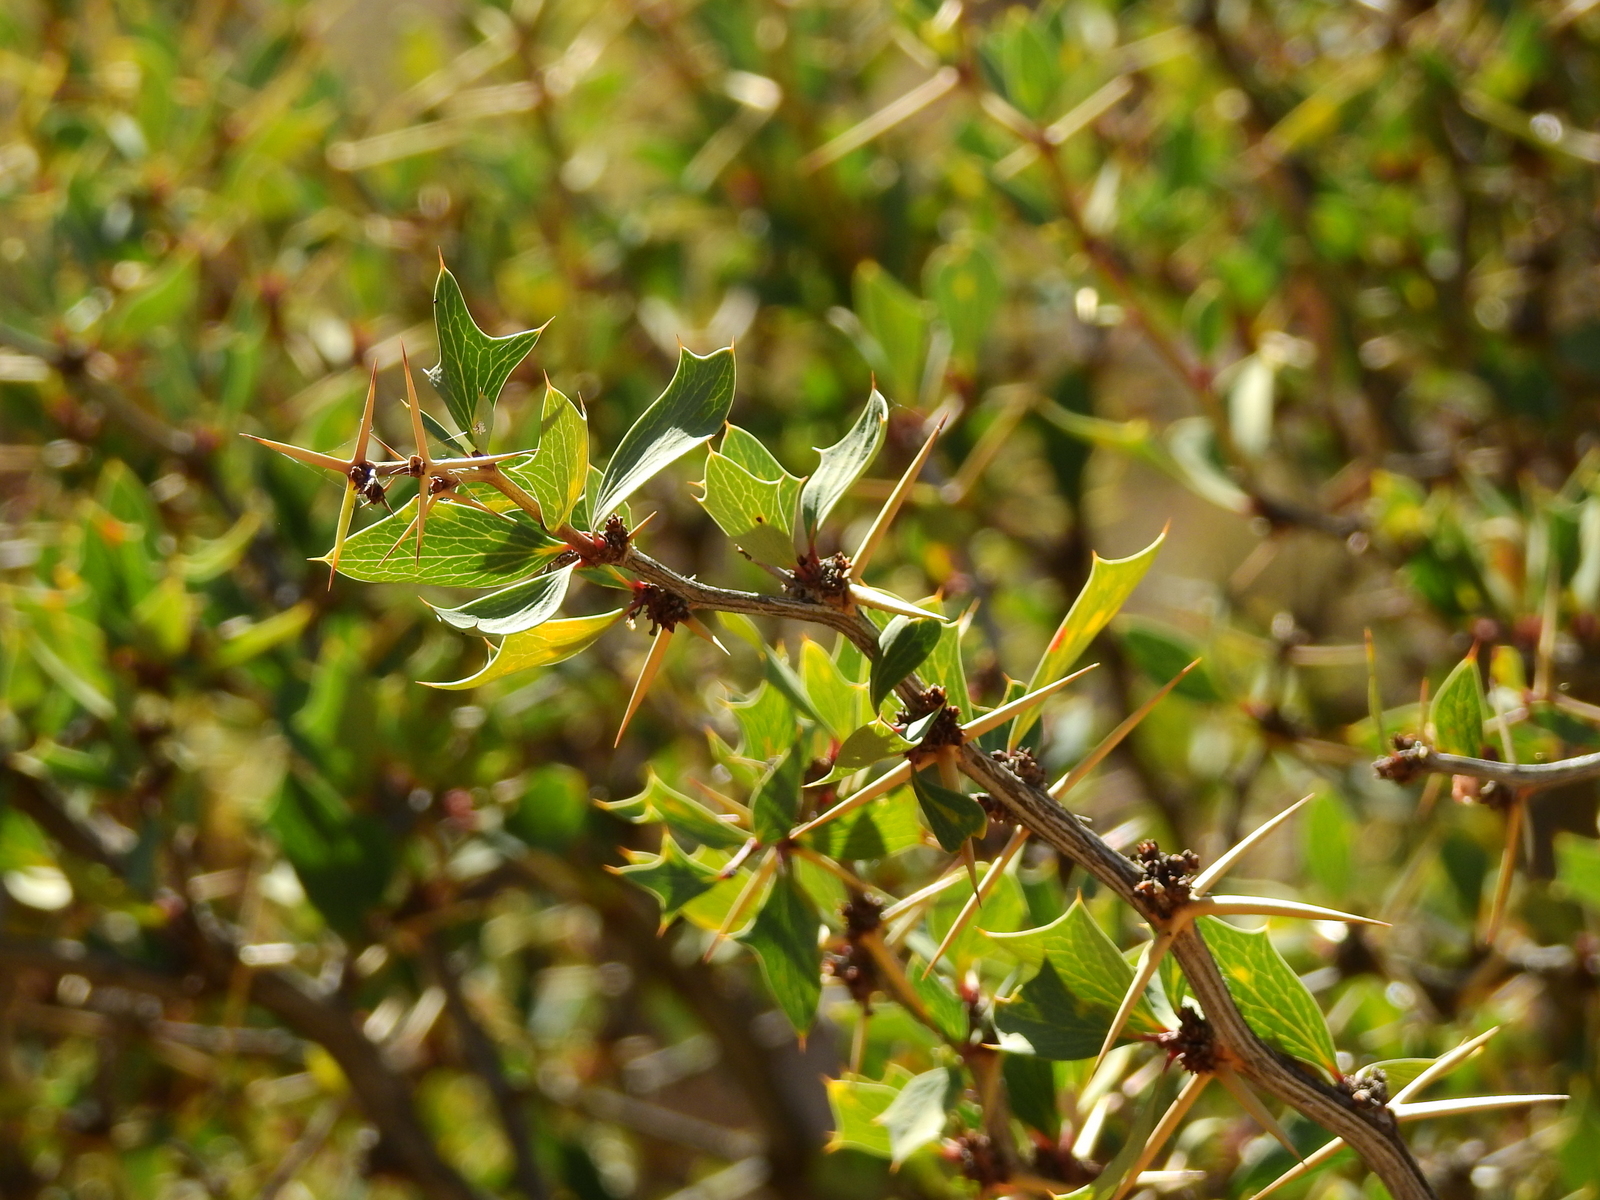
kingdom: Plantae
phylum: Tracheophyta
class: Magnoliopsida
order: Ranunculales
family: Berberidaceae
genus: Berberis
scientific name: Berberis grevilleana
